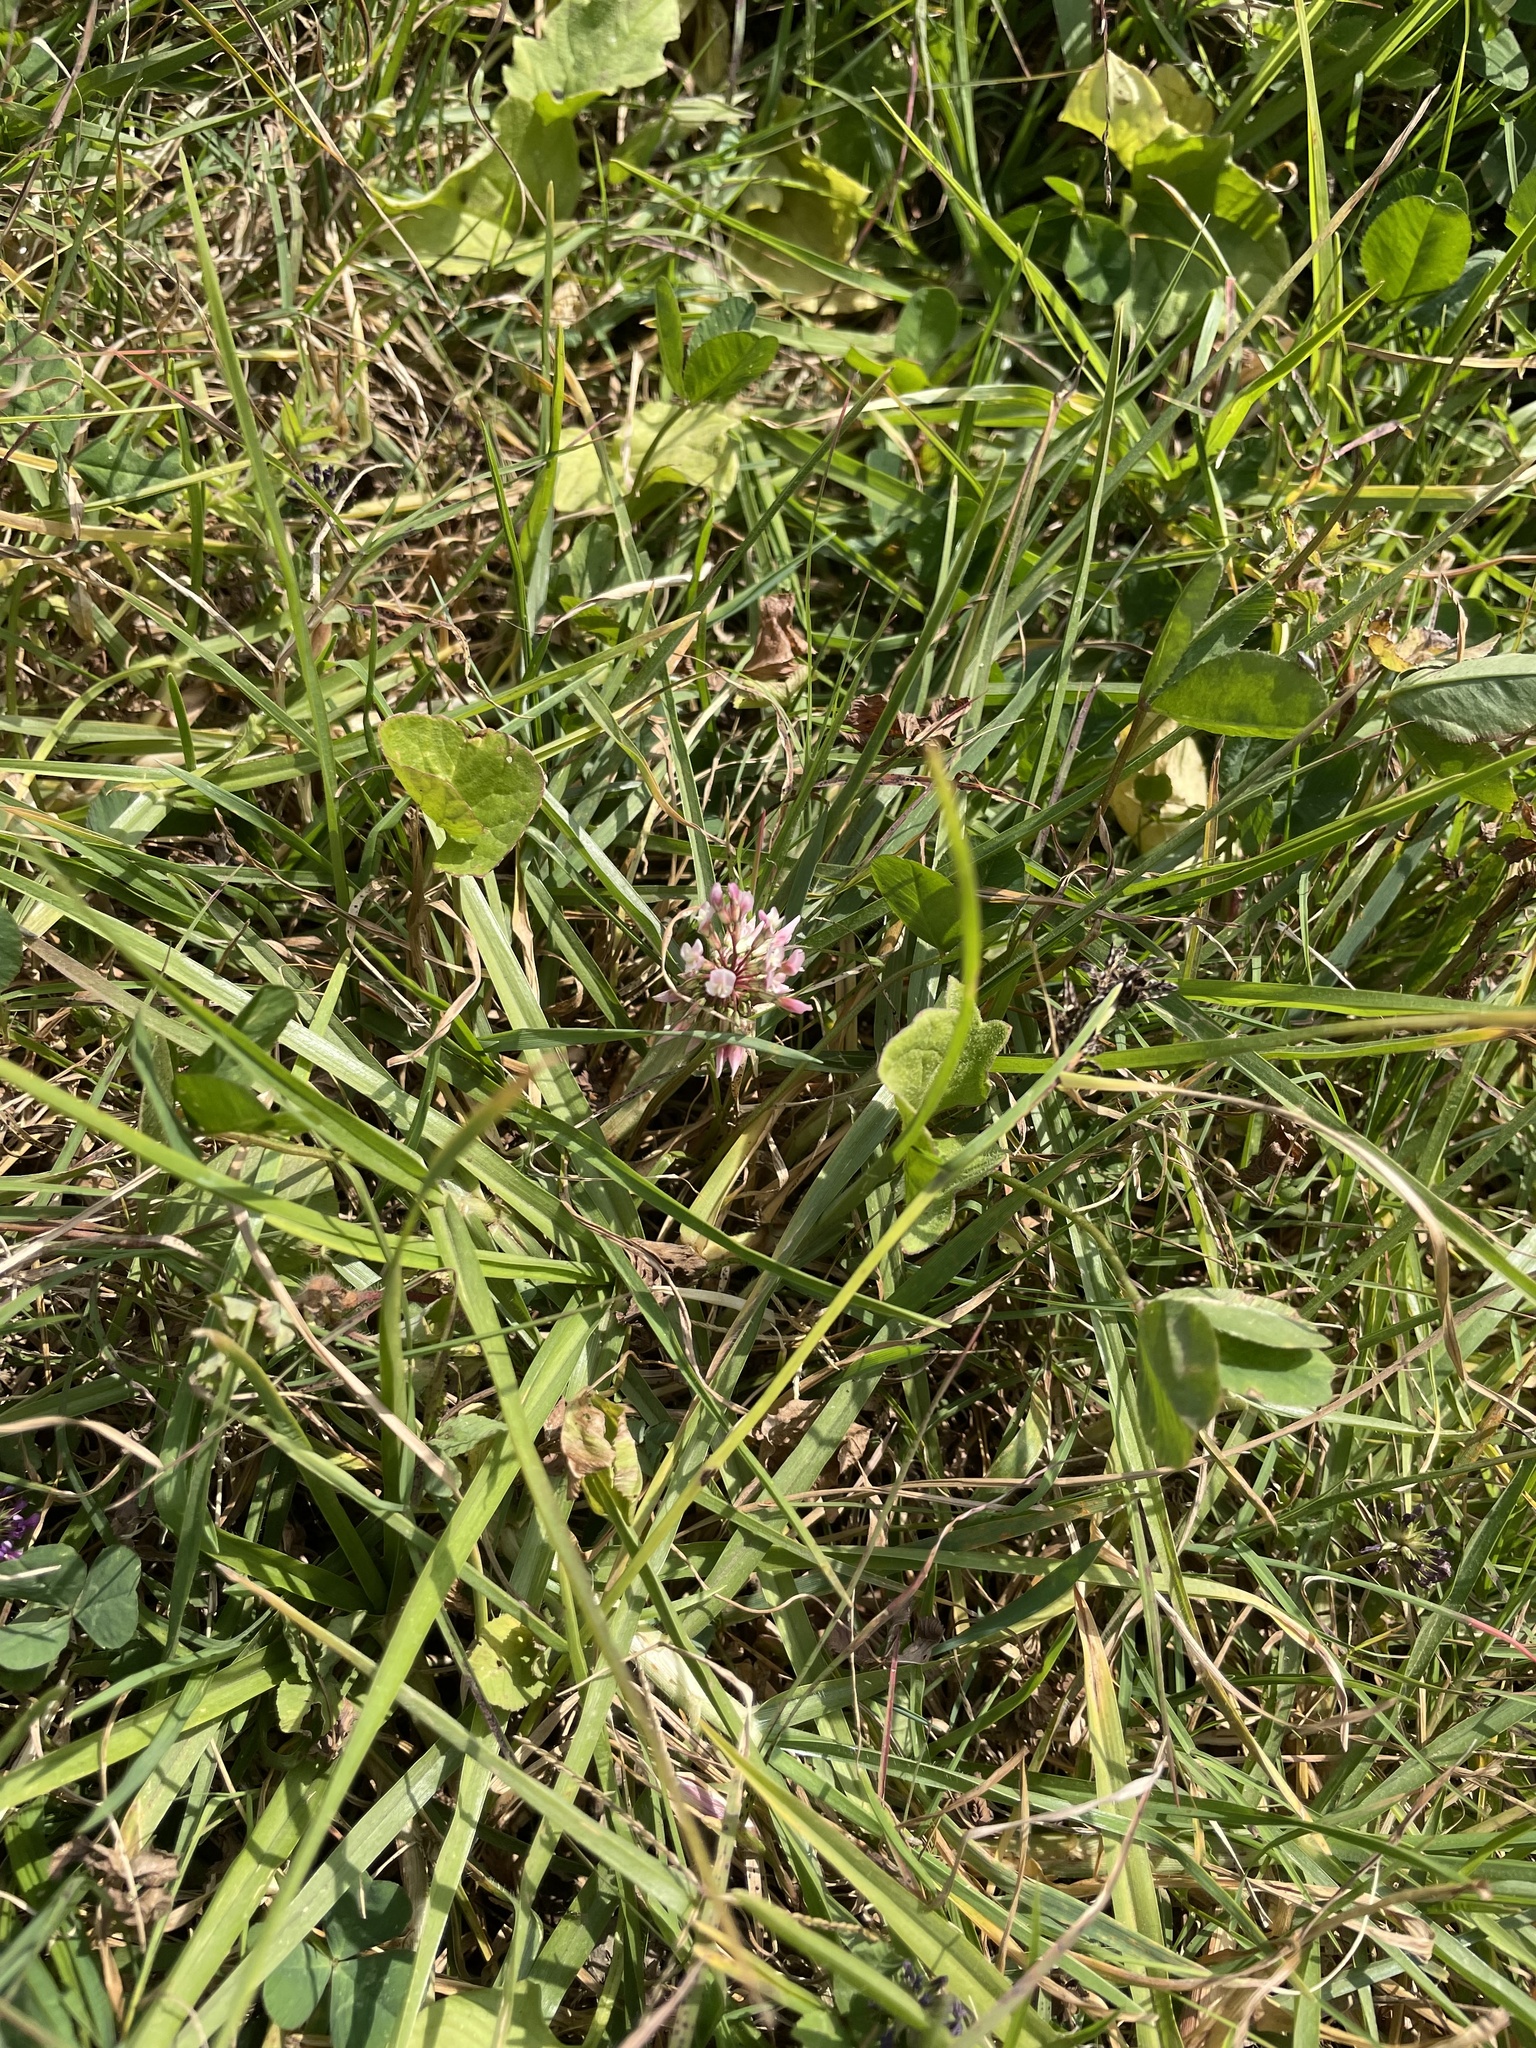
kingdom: Plantae
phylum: Tracheophyta
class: Magnoliopsida
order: Fabales
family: Fabaceae
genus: Trifolium
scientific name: Trifolium repens
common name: White clover
